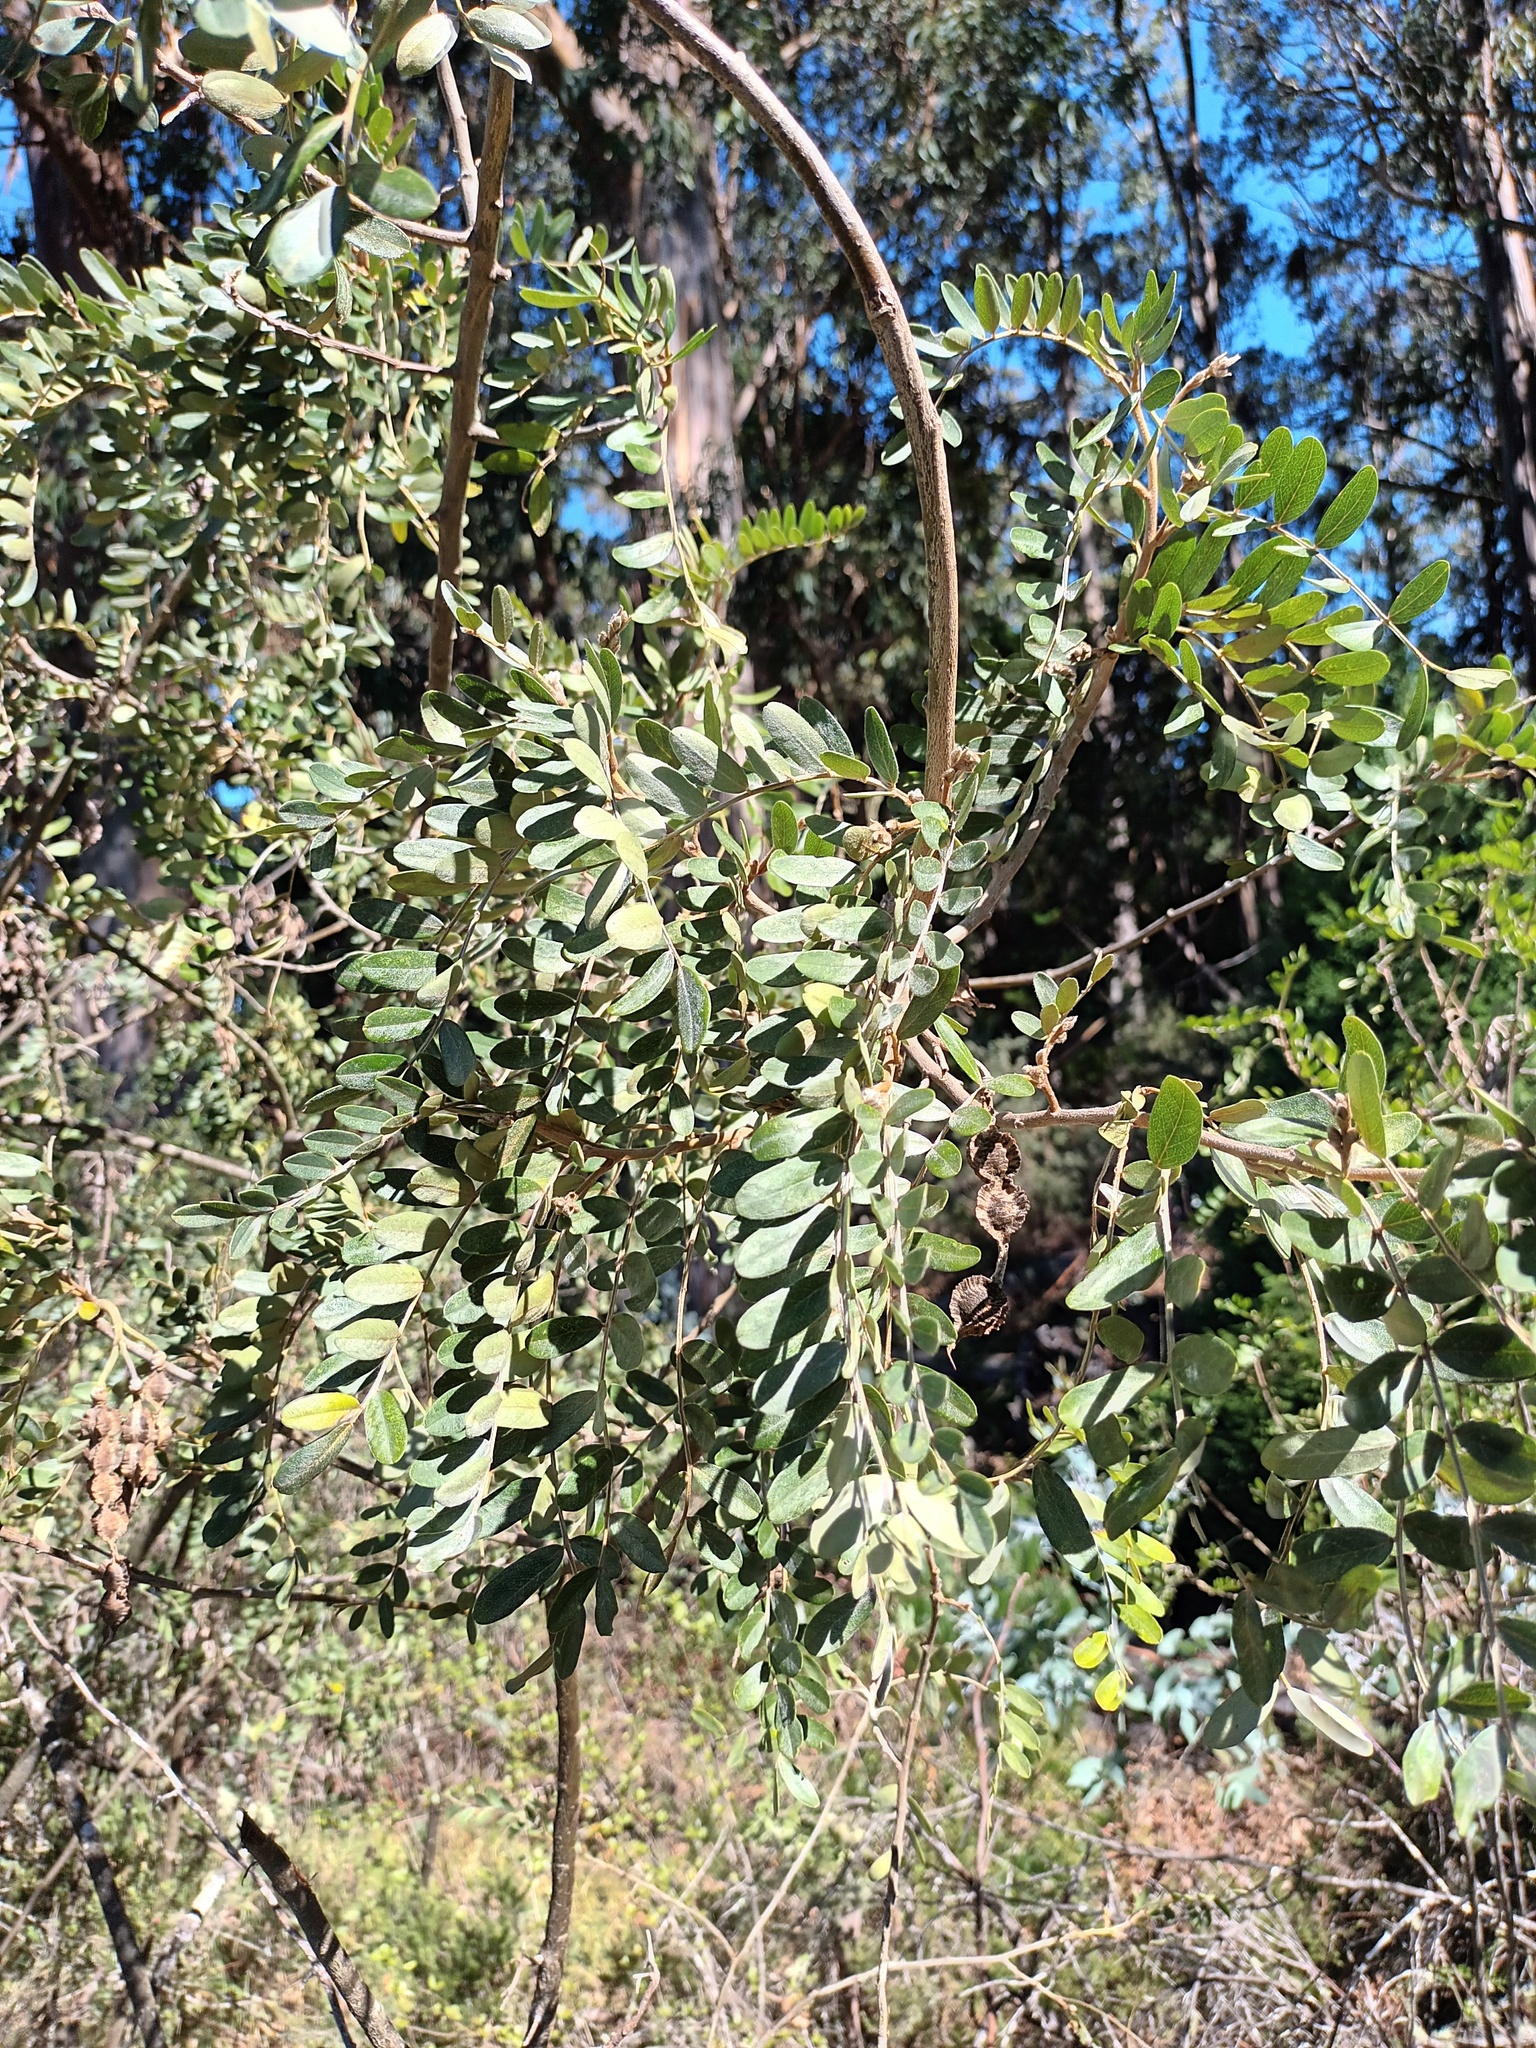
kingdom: Plantae
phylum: Tracheophyta
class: Magnoliopsida
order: Fabales
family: Fabaceae
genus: Sophora
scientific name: Sophora chrysophylla
